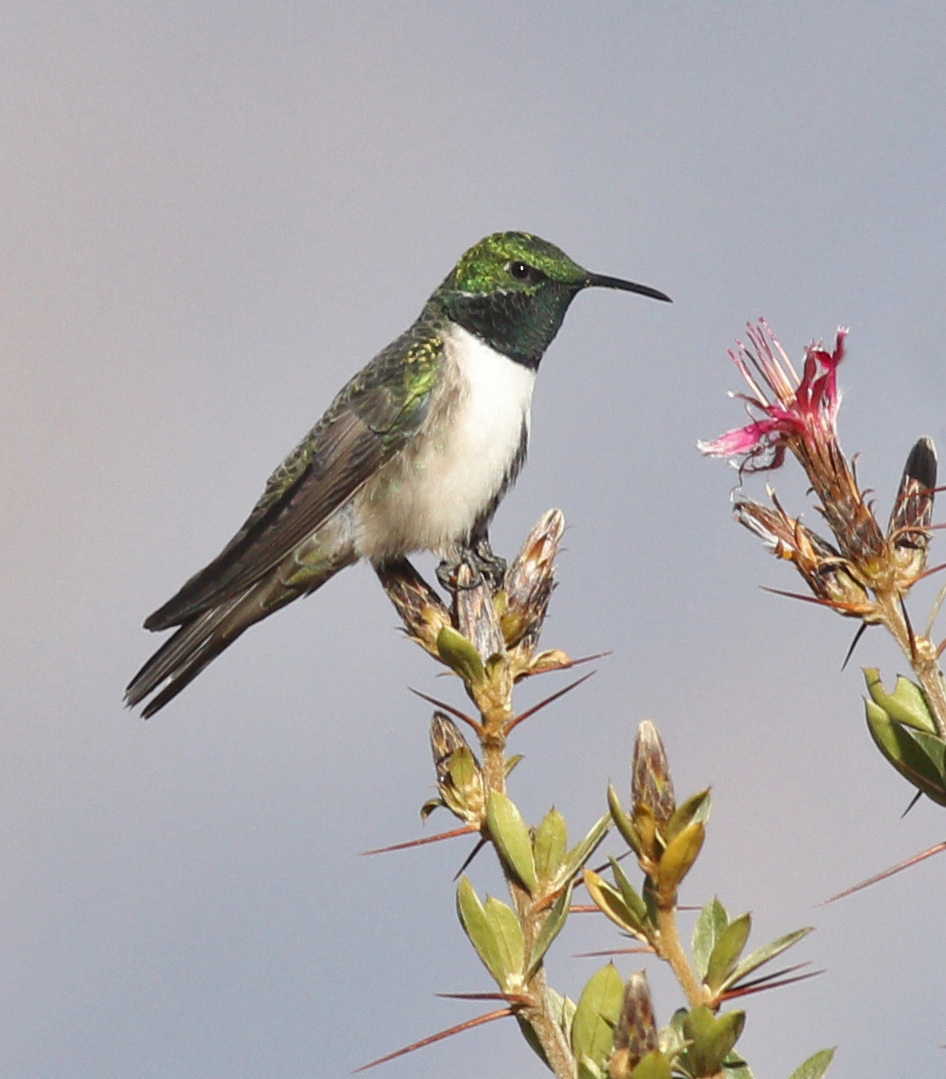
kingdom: Animalia
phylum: Chordata
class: Aves
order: Apodiformes
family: Trochilidae
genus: Oreotrochilus
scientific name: Oreotrochilus stolzmanni
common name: Green-headed hillstar
